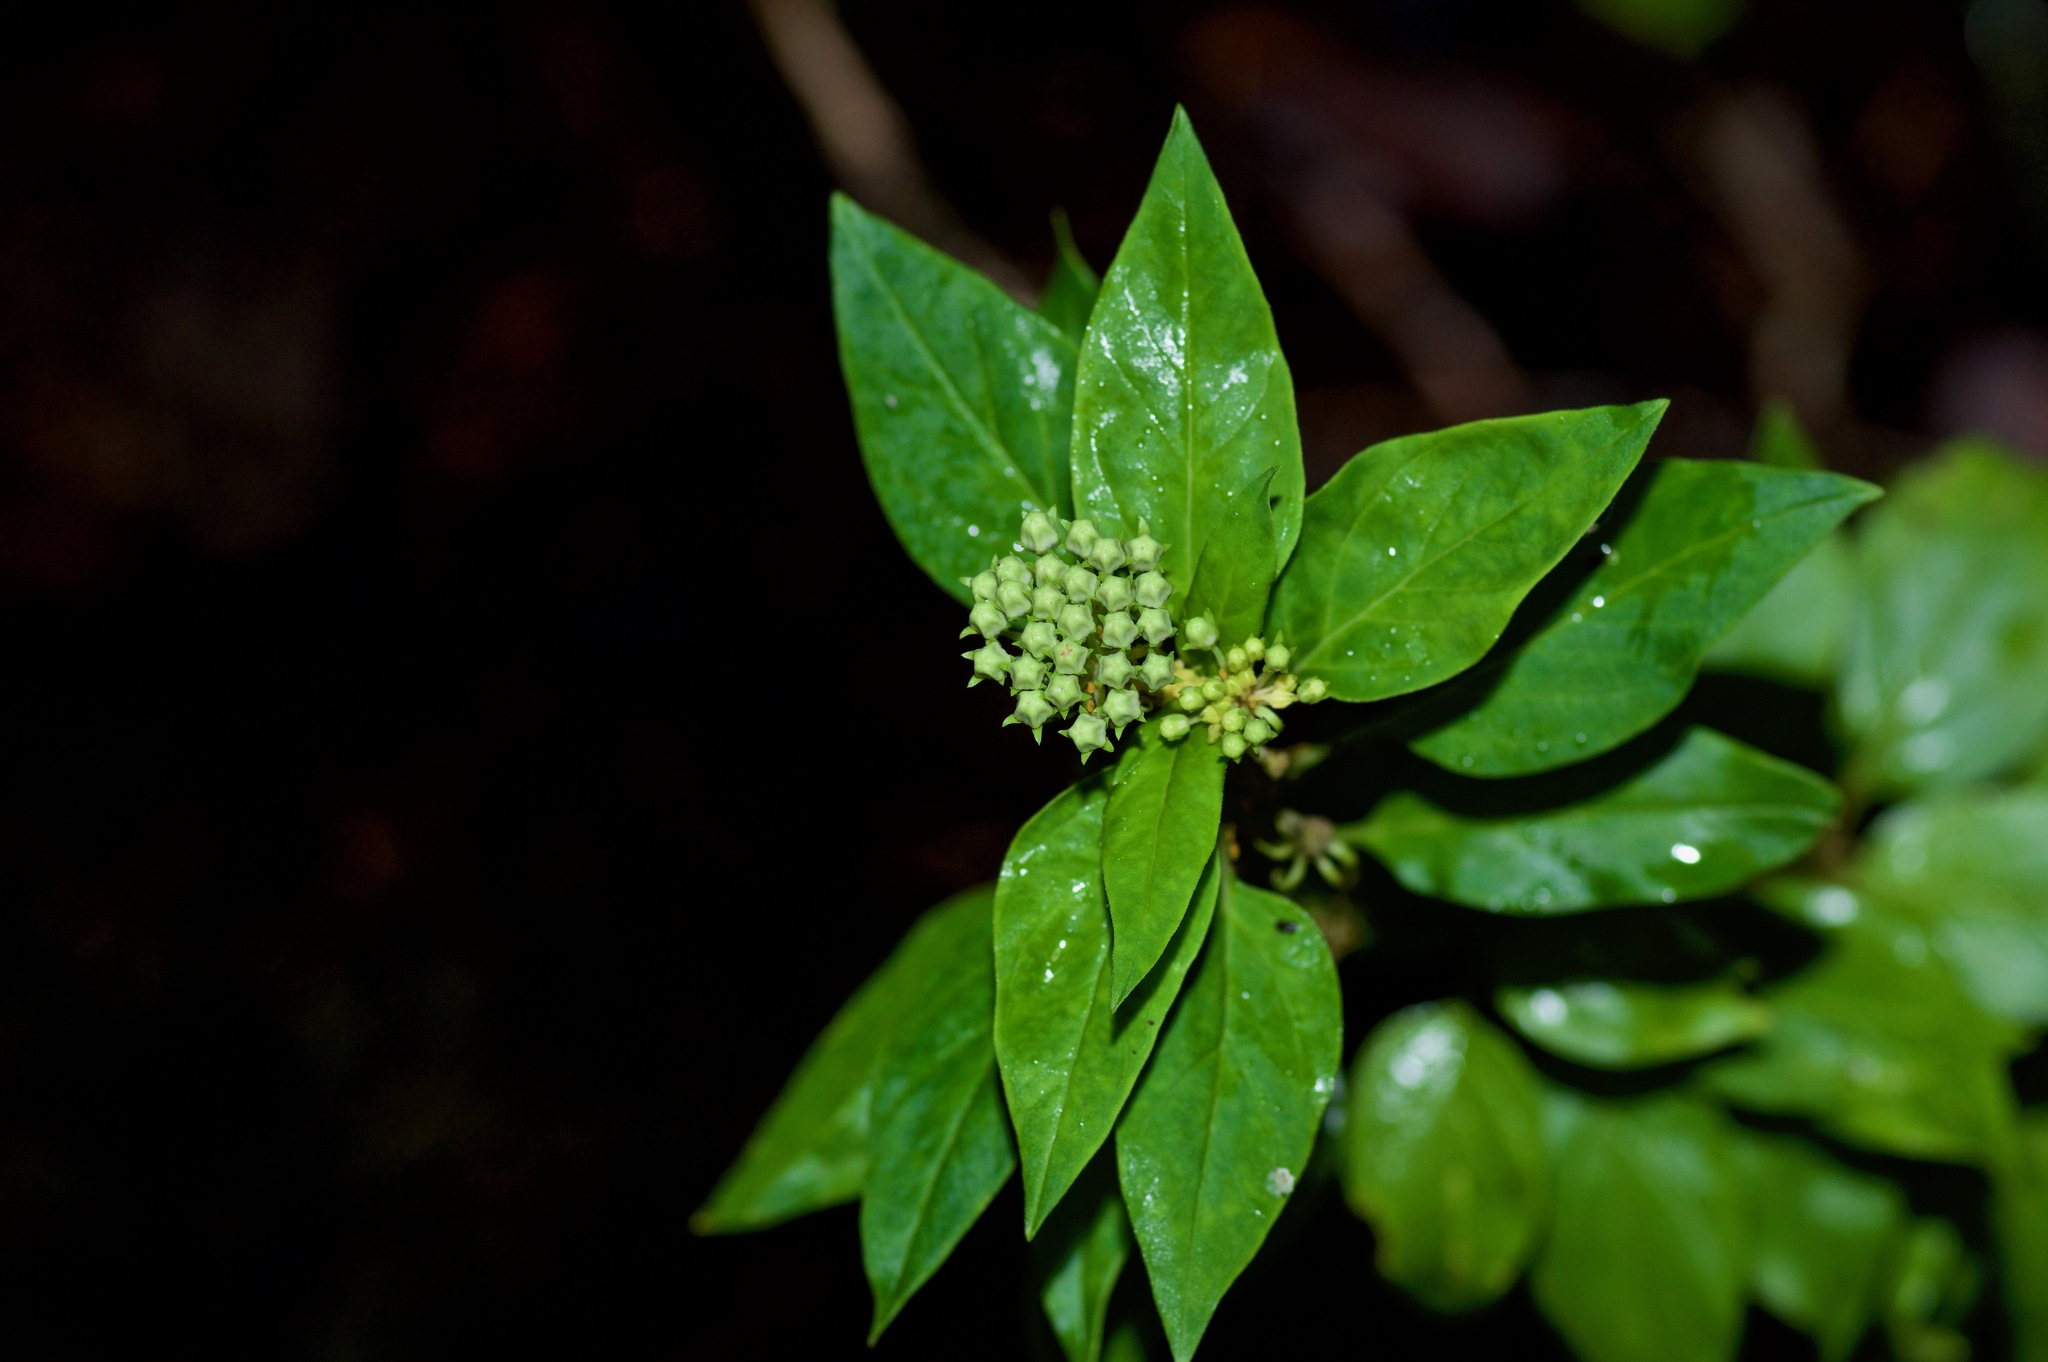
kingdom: Plantae
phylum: Tracheophyta
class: Magnoliopsida
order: Gentianales
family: Apocynaceae
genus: Asclepias
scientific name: Asclepias texana
